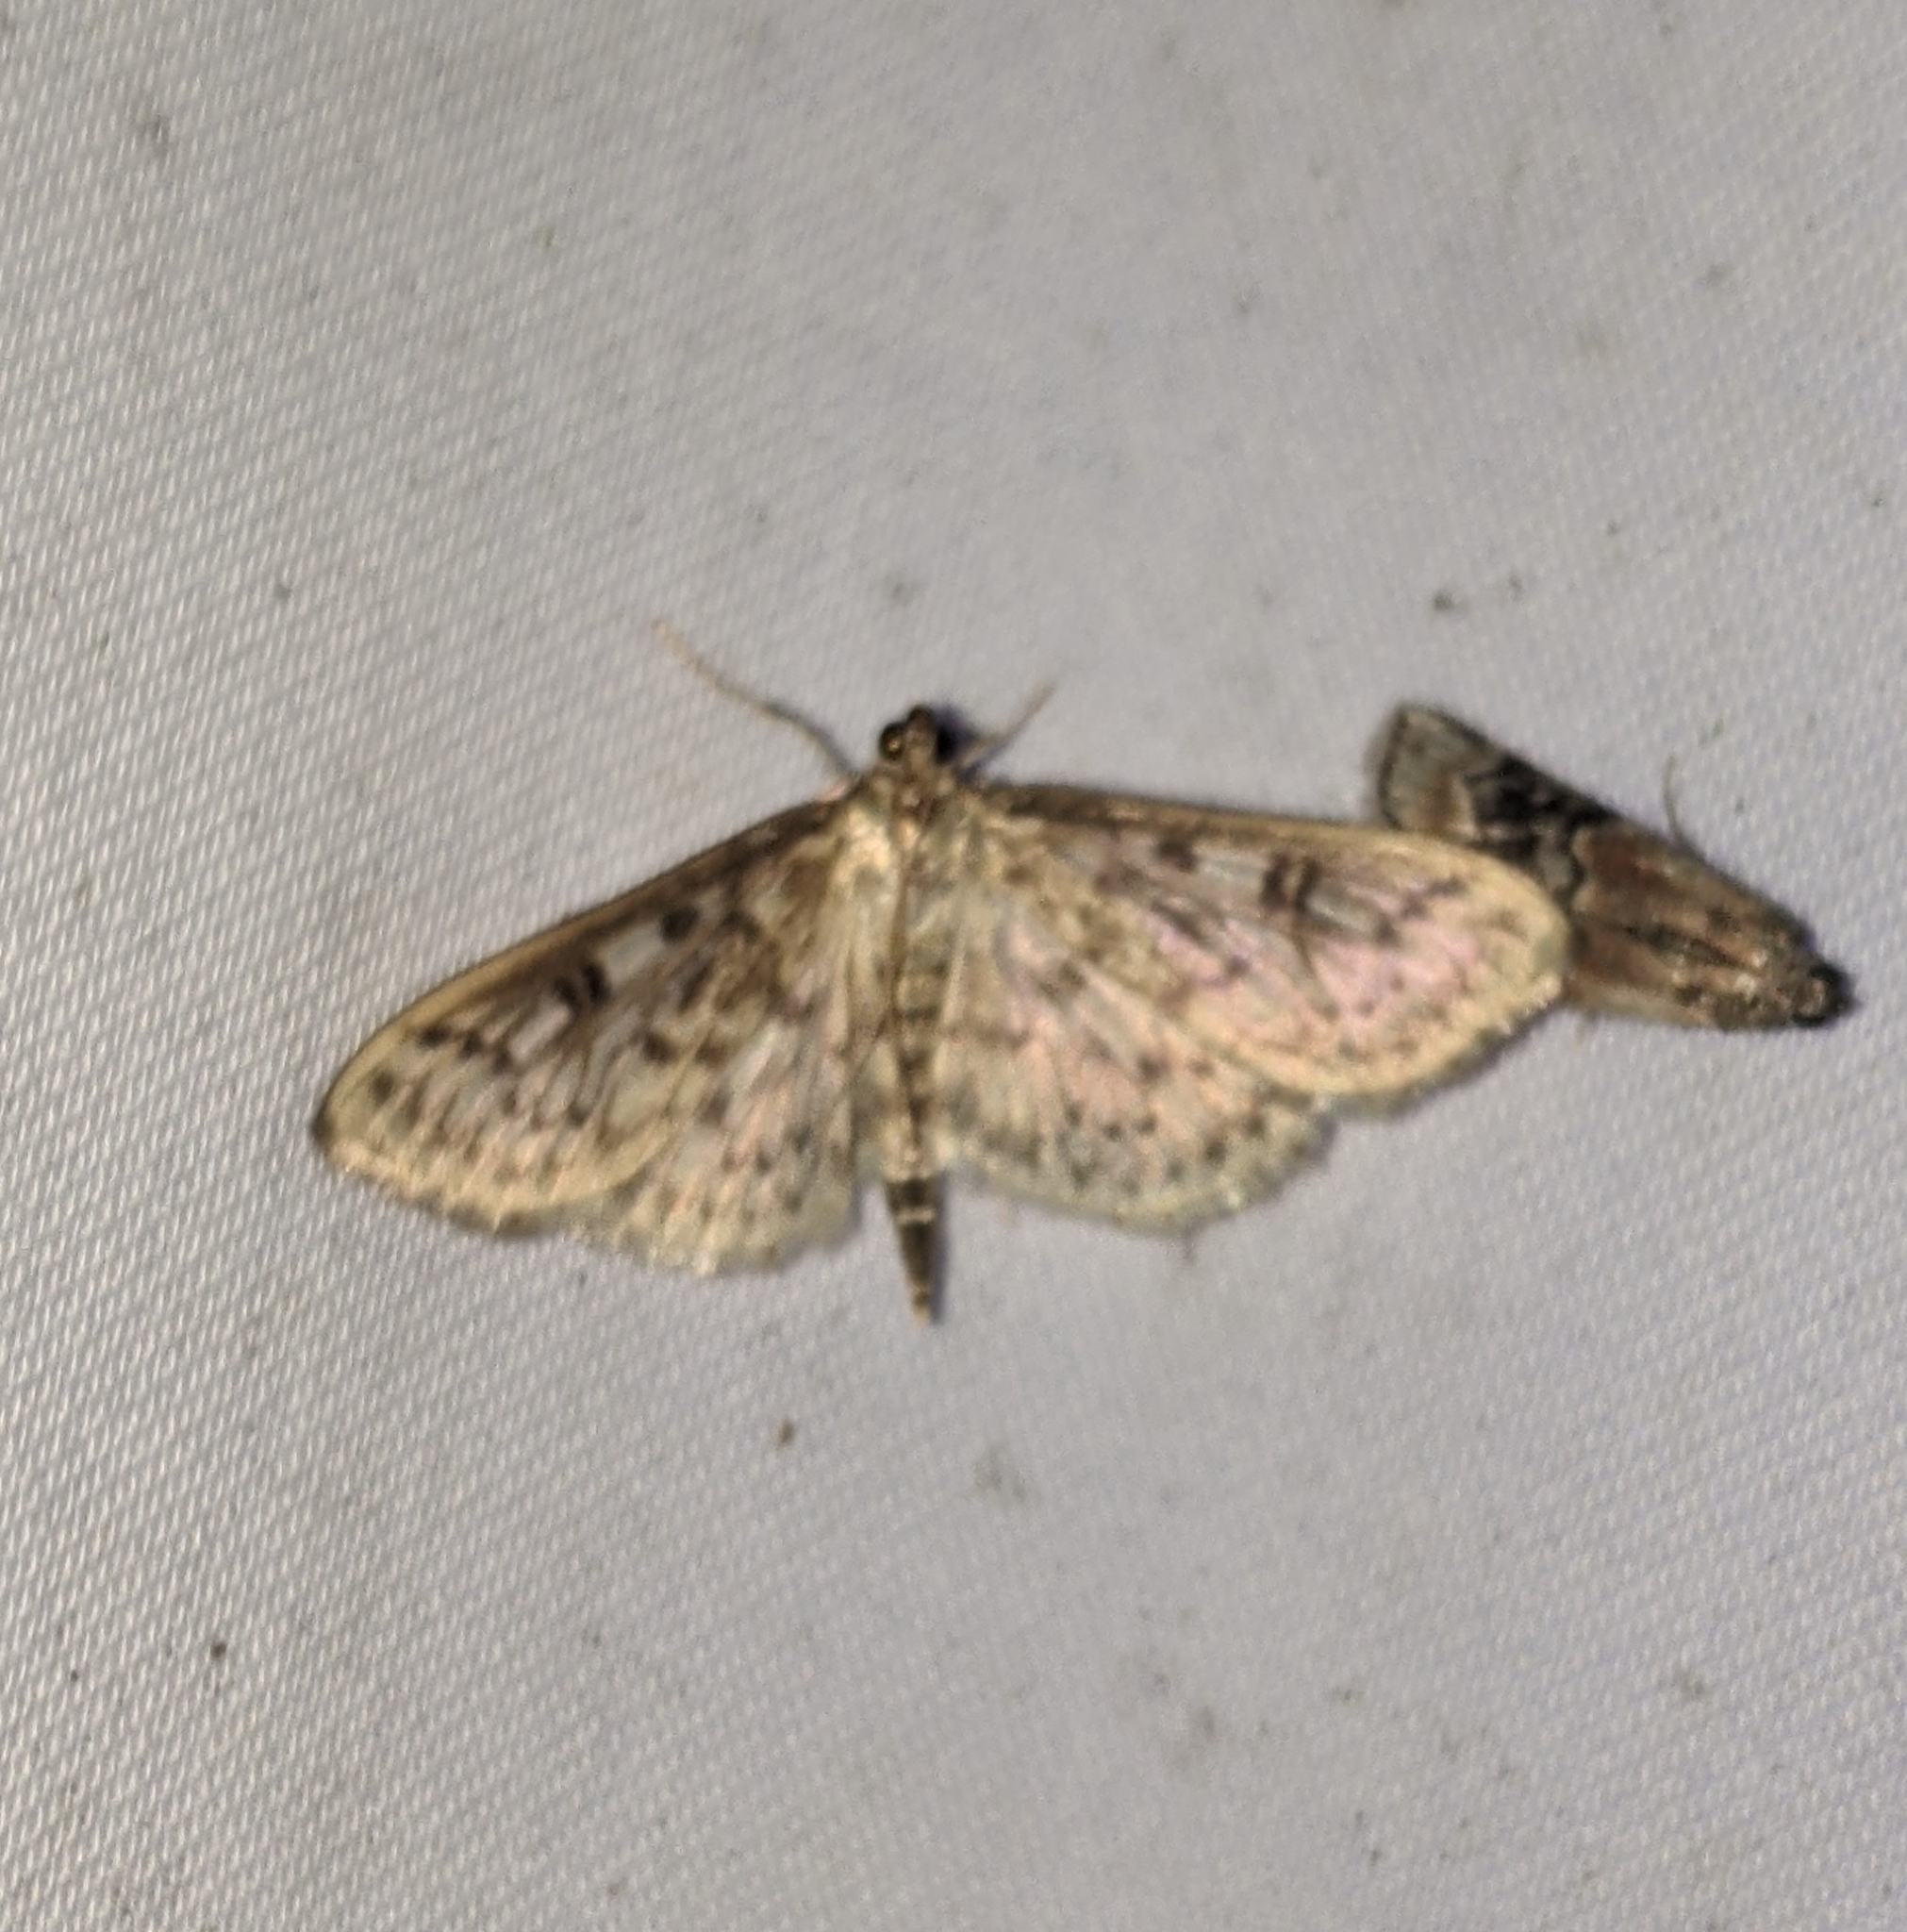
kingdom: Animalia
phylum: Arthropoda
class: Insecta
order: Lepidoptera
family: Crambidae
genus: Herpetogramma
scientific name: Herpetogramma aquilonalis
